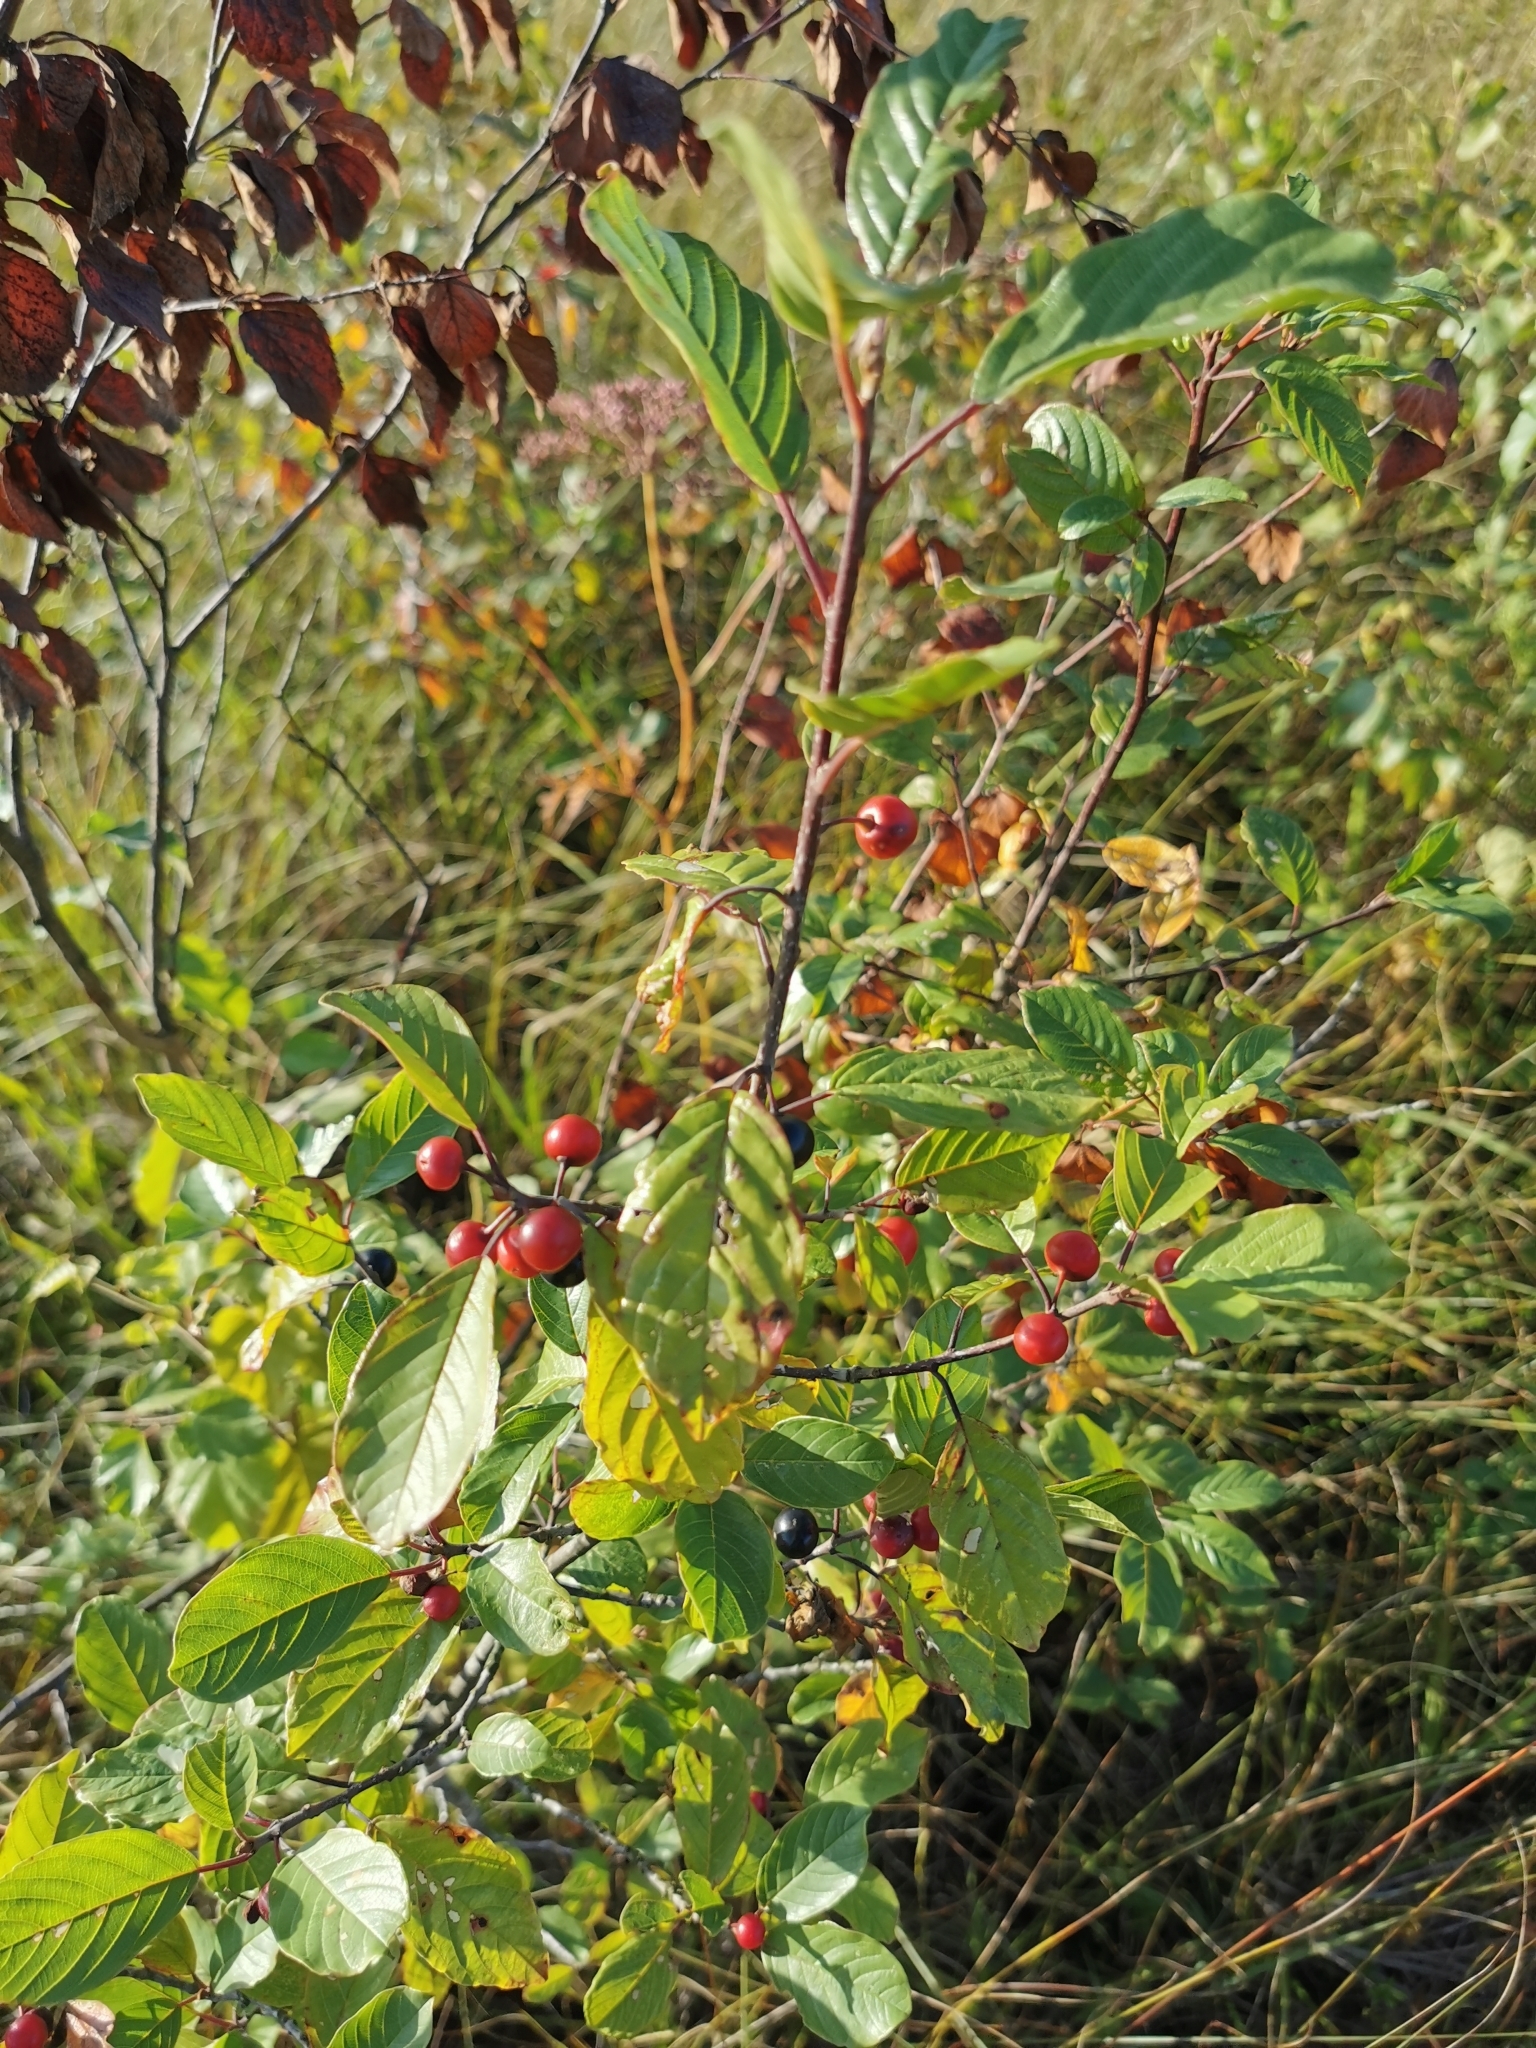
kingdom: Plantae
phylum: Tracheophyta
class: Magnoliopsida
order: Rosales
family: Rhamnaceae
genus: Frangula
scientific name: Frangula alnus
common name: Alder buckthorn
